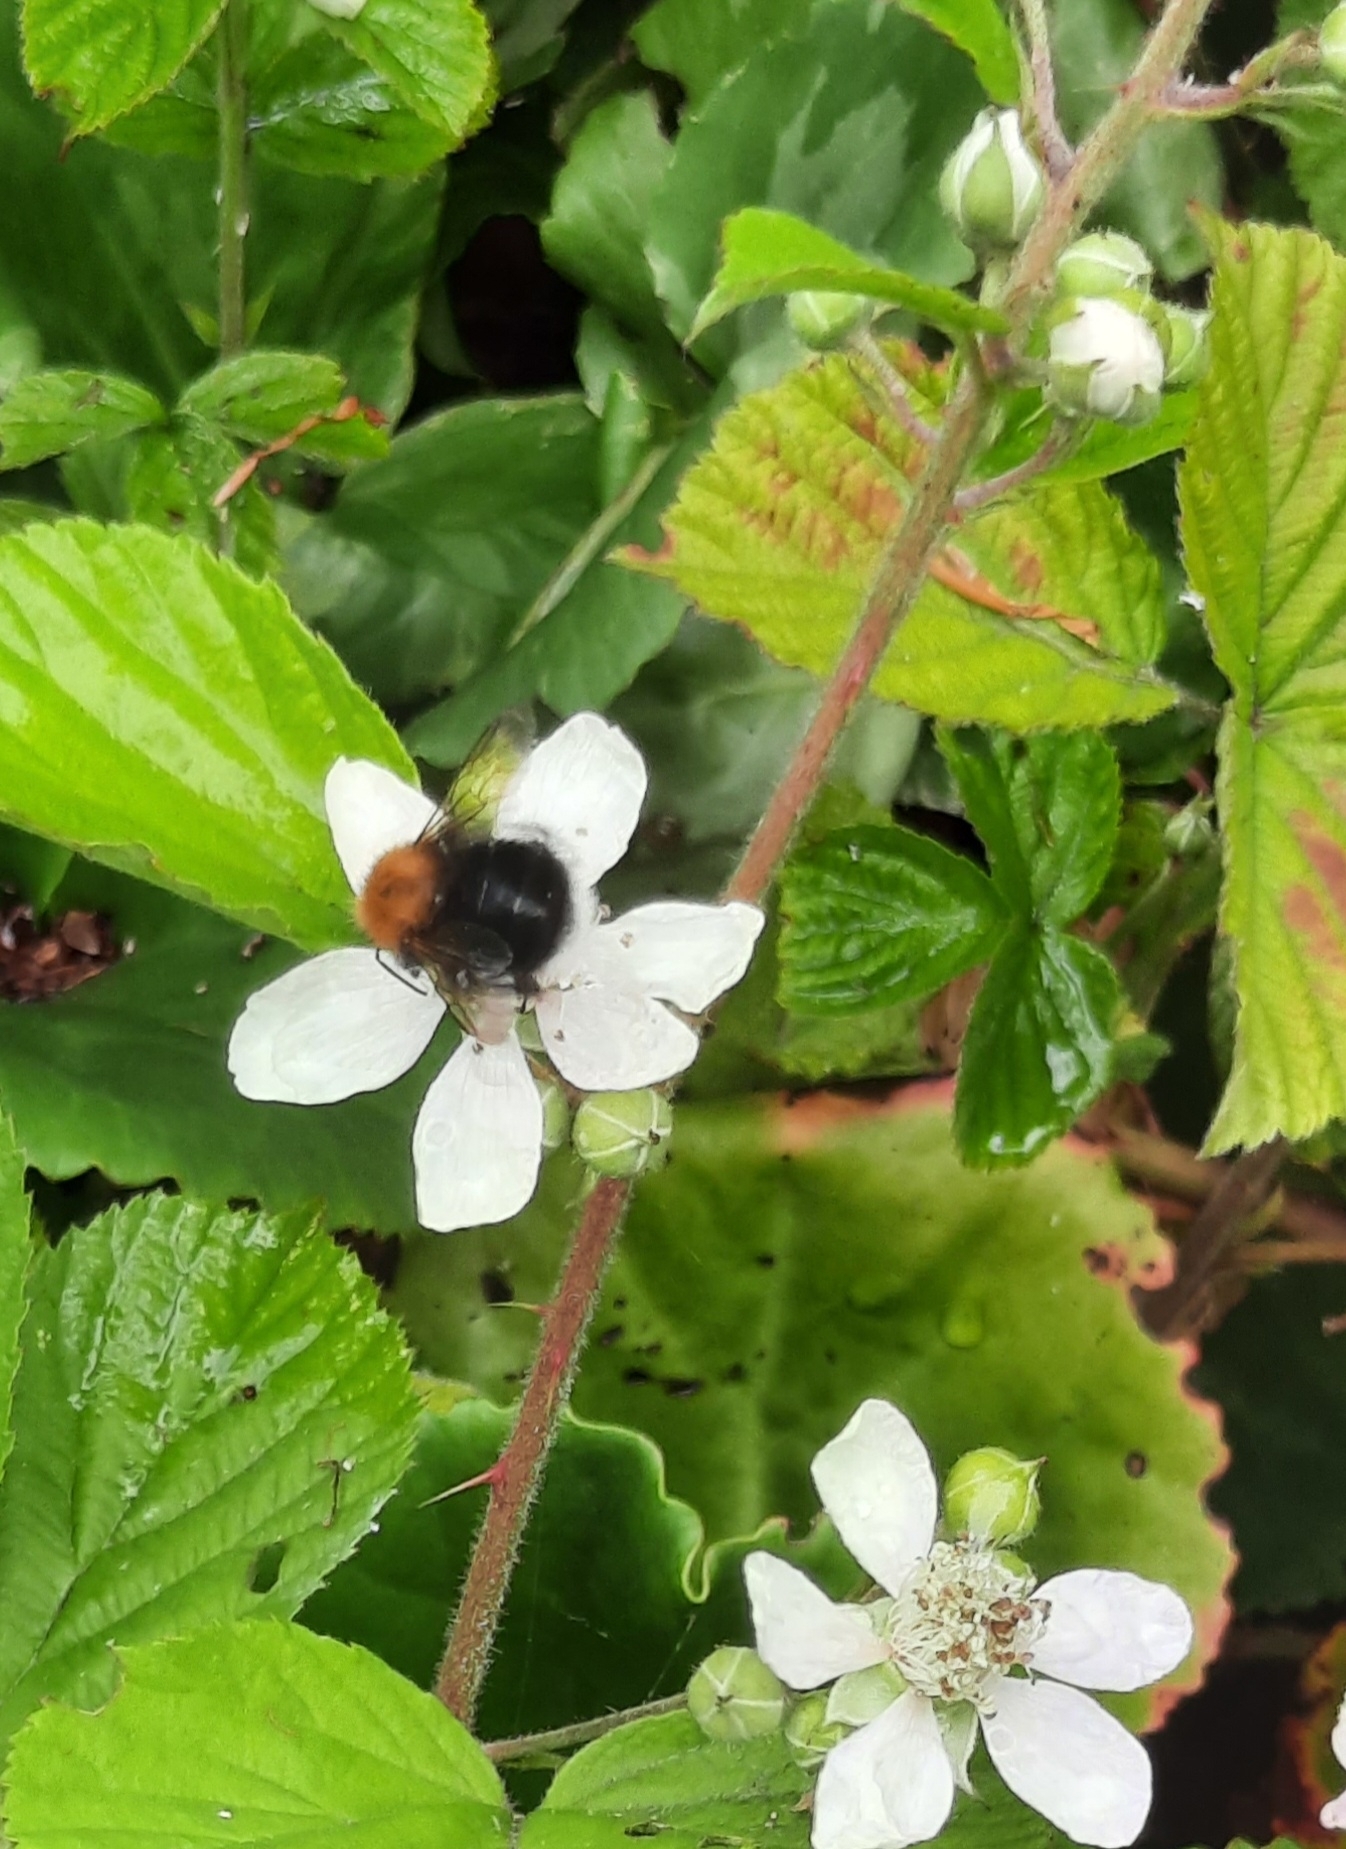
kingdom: Animalia
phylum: Arthropoda
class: Insecta
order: Hymenoptera
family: Apidae
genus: Bombus
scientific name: Bombus hypnorum
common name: New garden bumblebee
